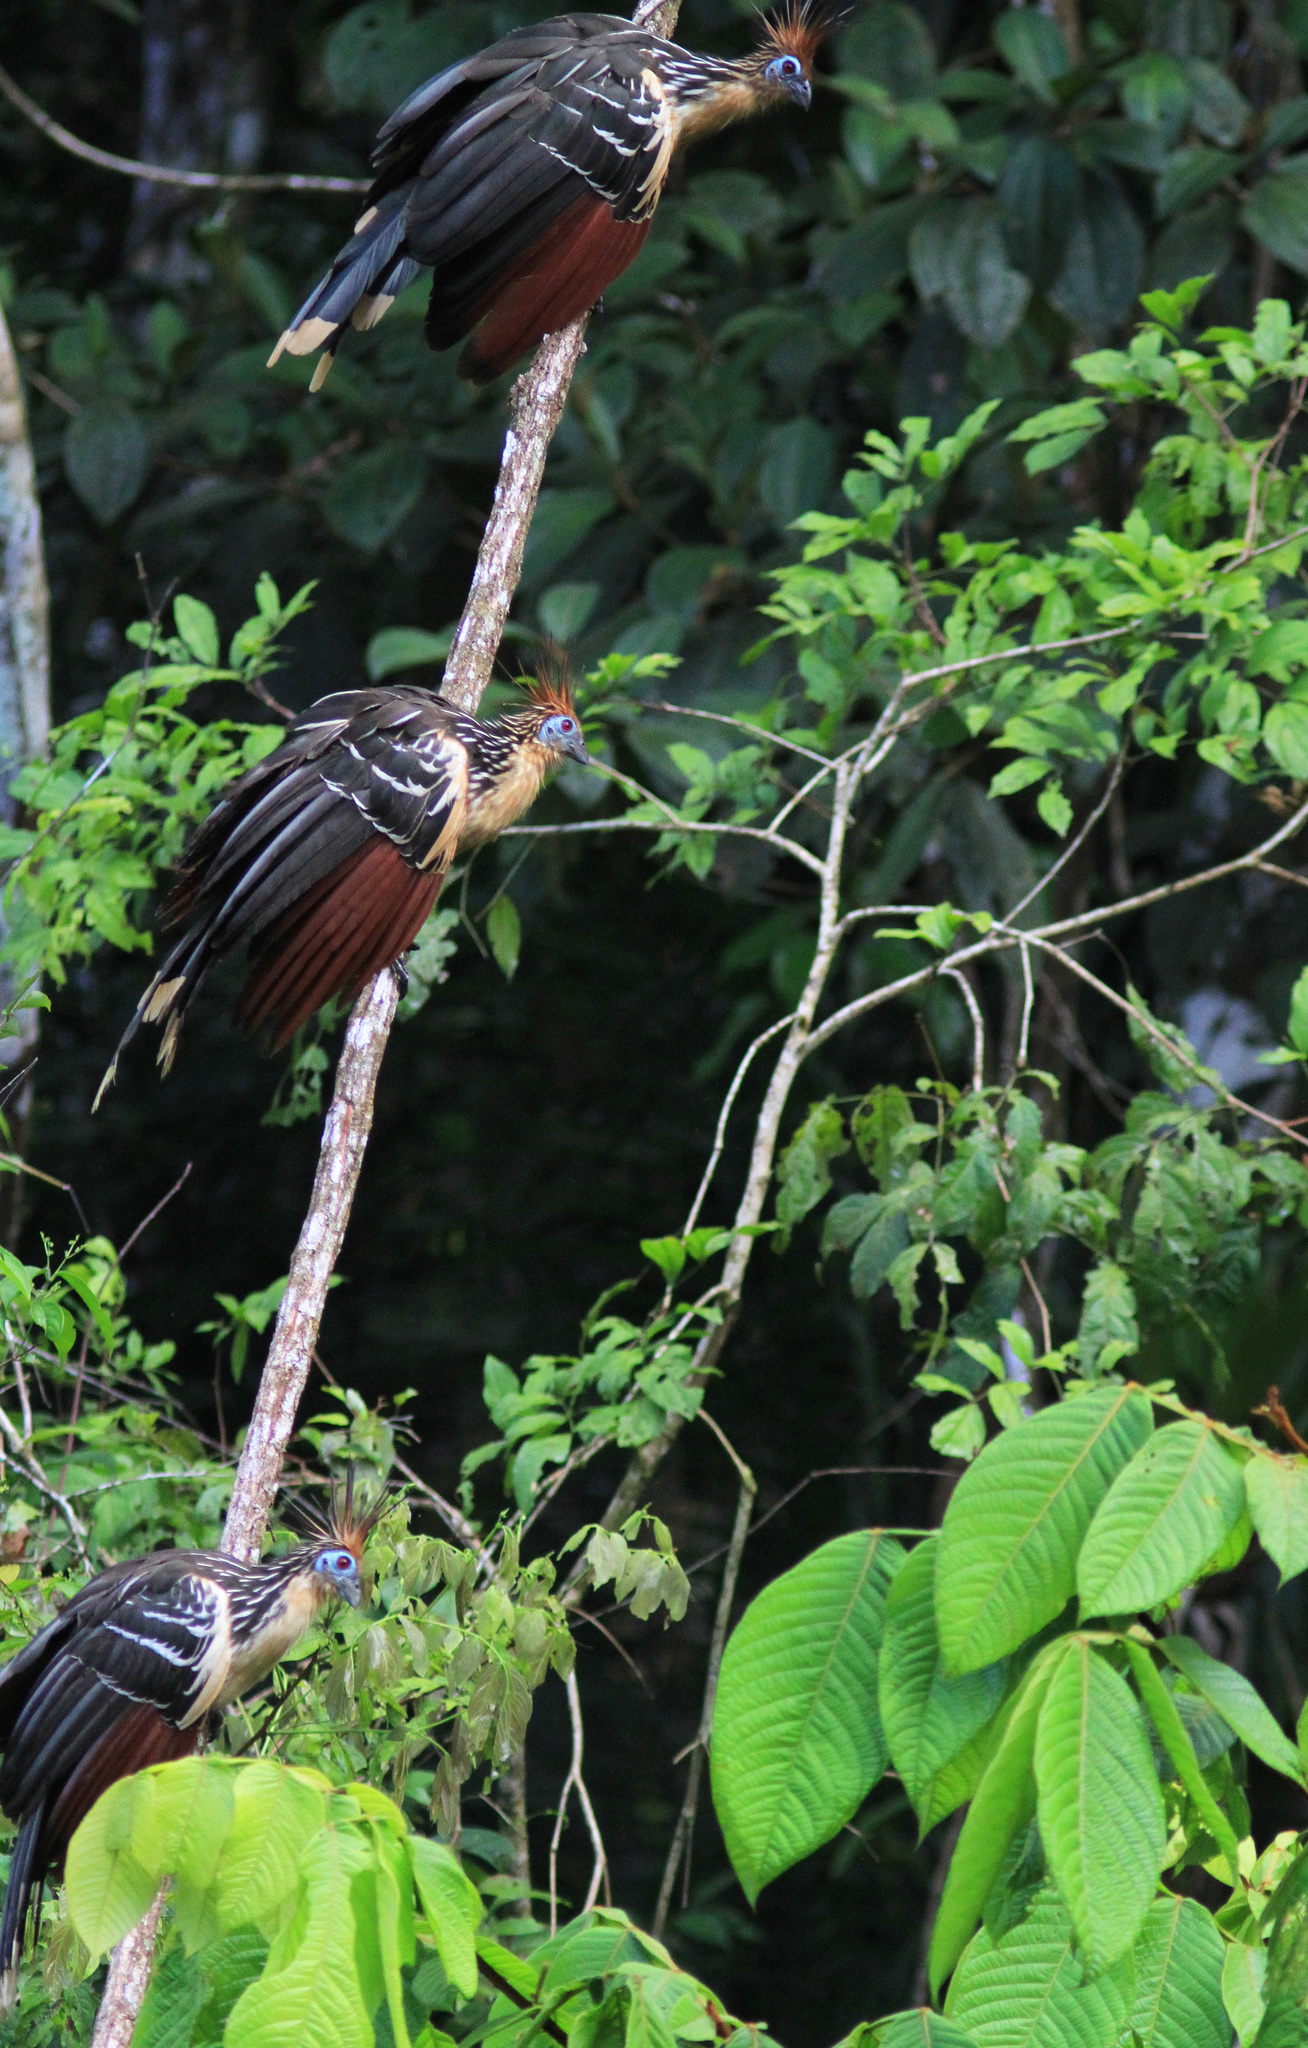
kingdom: Animalia
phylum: Chordata
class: Aves
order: Opisthocomiformes
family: Opisthocomidae
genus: Opisthocomus
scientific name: Opisthocomus hoazin
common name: Hoatzin
